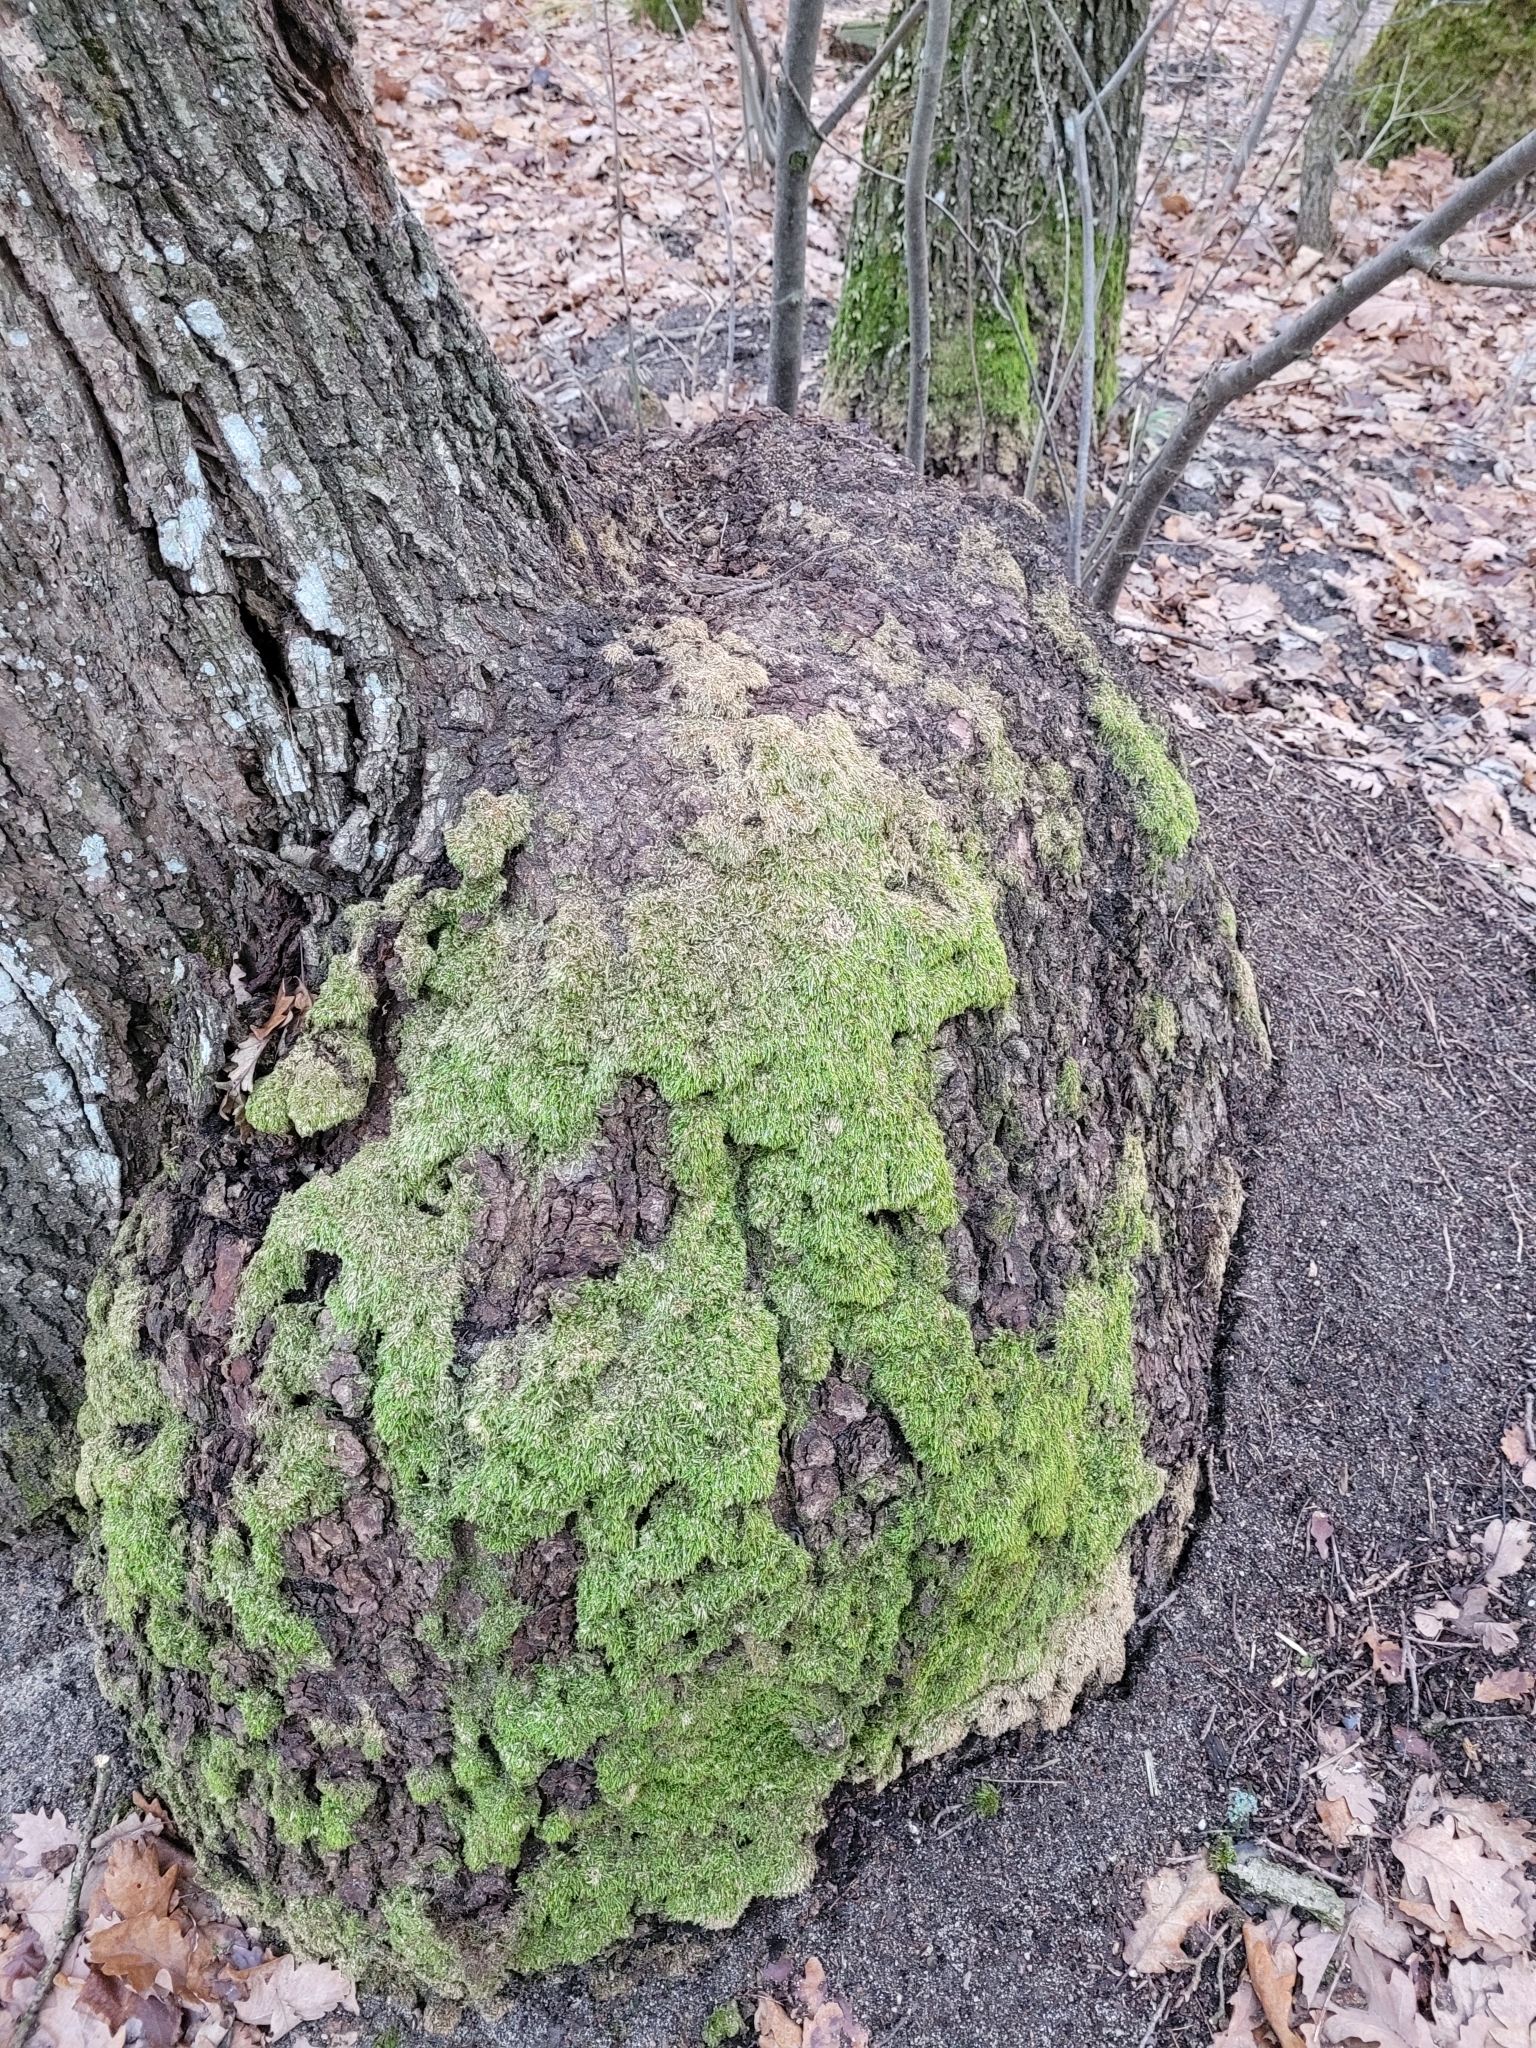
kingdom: Bacteria
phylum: Proteobacteria
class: Alphaproteobacteria
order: Rhizobiales
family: Rhizobiaceae
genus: Rhizobium
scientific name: Rhizobium Agrobacterium radiobacter
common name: Bacterial crown gall
